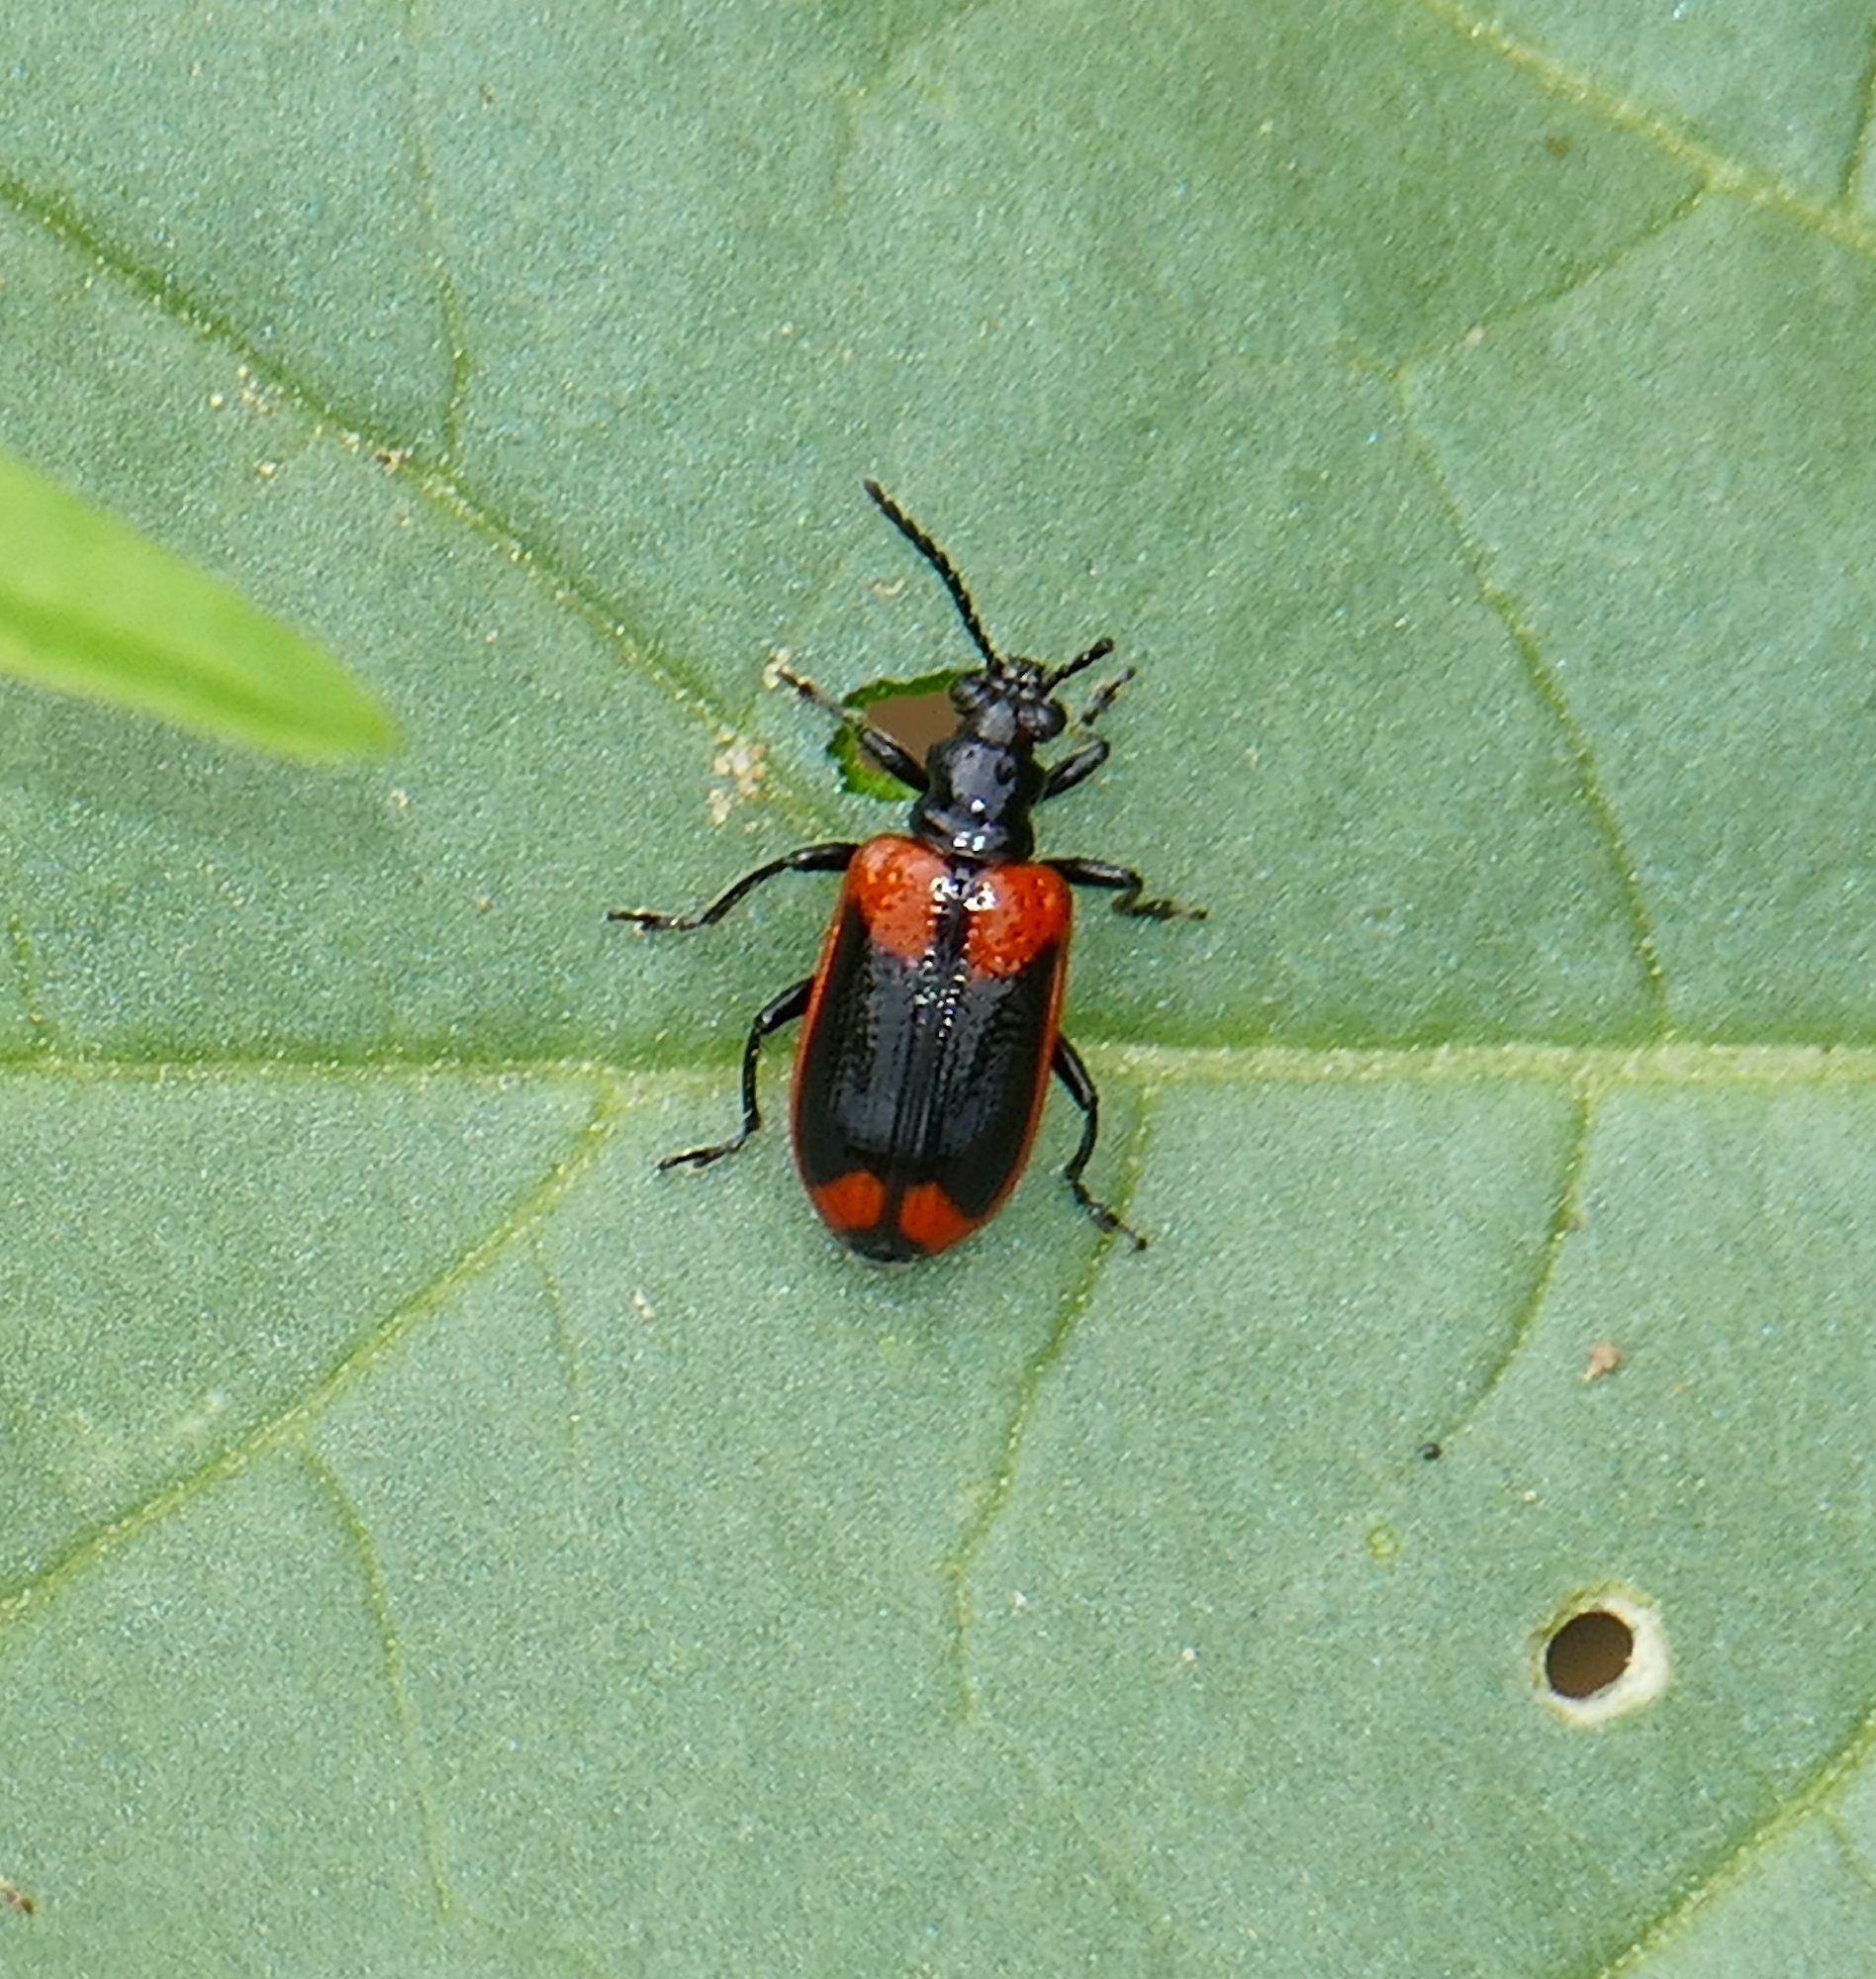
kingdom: Animalia
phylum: Arthropoda
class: Insecta
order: Coleoptera
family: Chrysomelidae
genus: Lema
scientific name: Lema confusa
